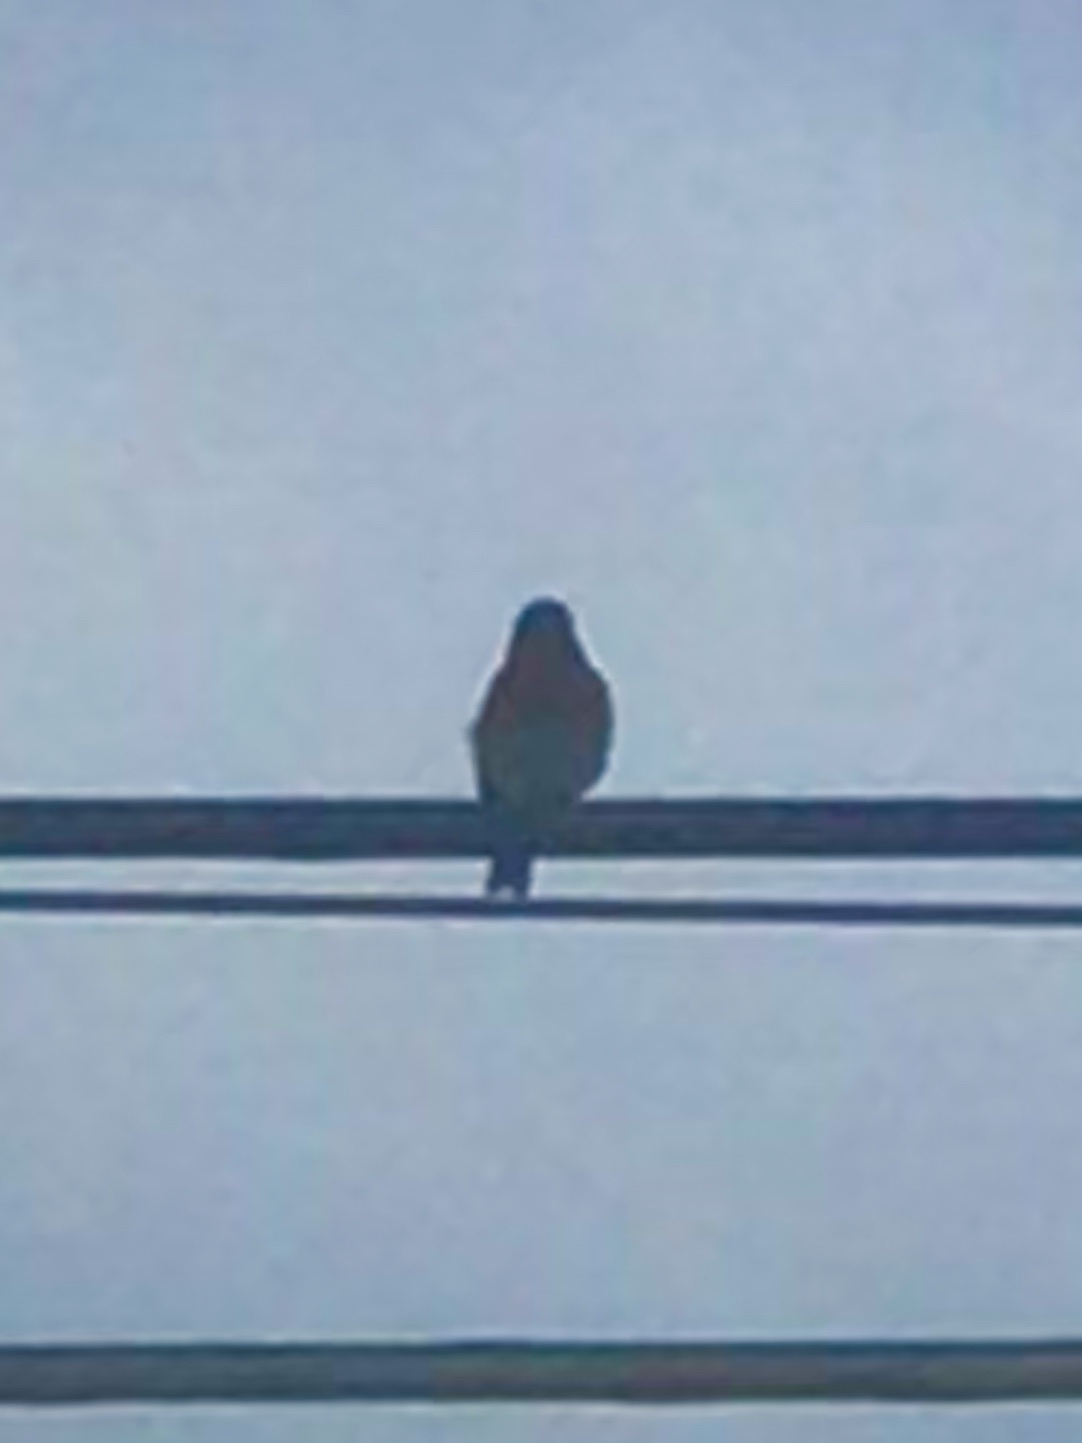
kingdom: Animalia
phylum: Chordata
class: Aves
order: Passeriformes
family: Turdidae
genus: Sialia
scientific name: Sialia sialis
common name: Eastern bluebird
